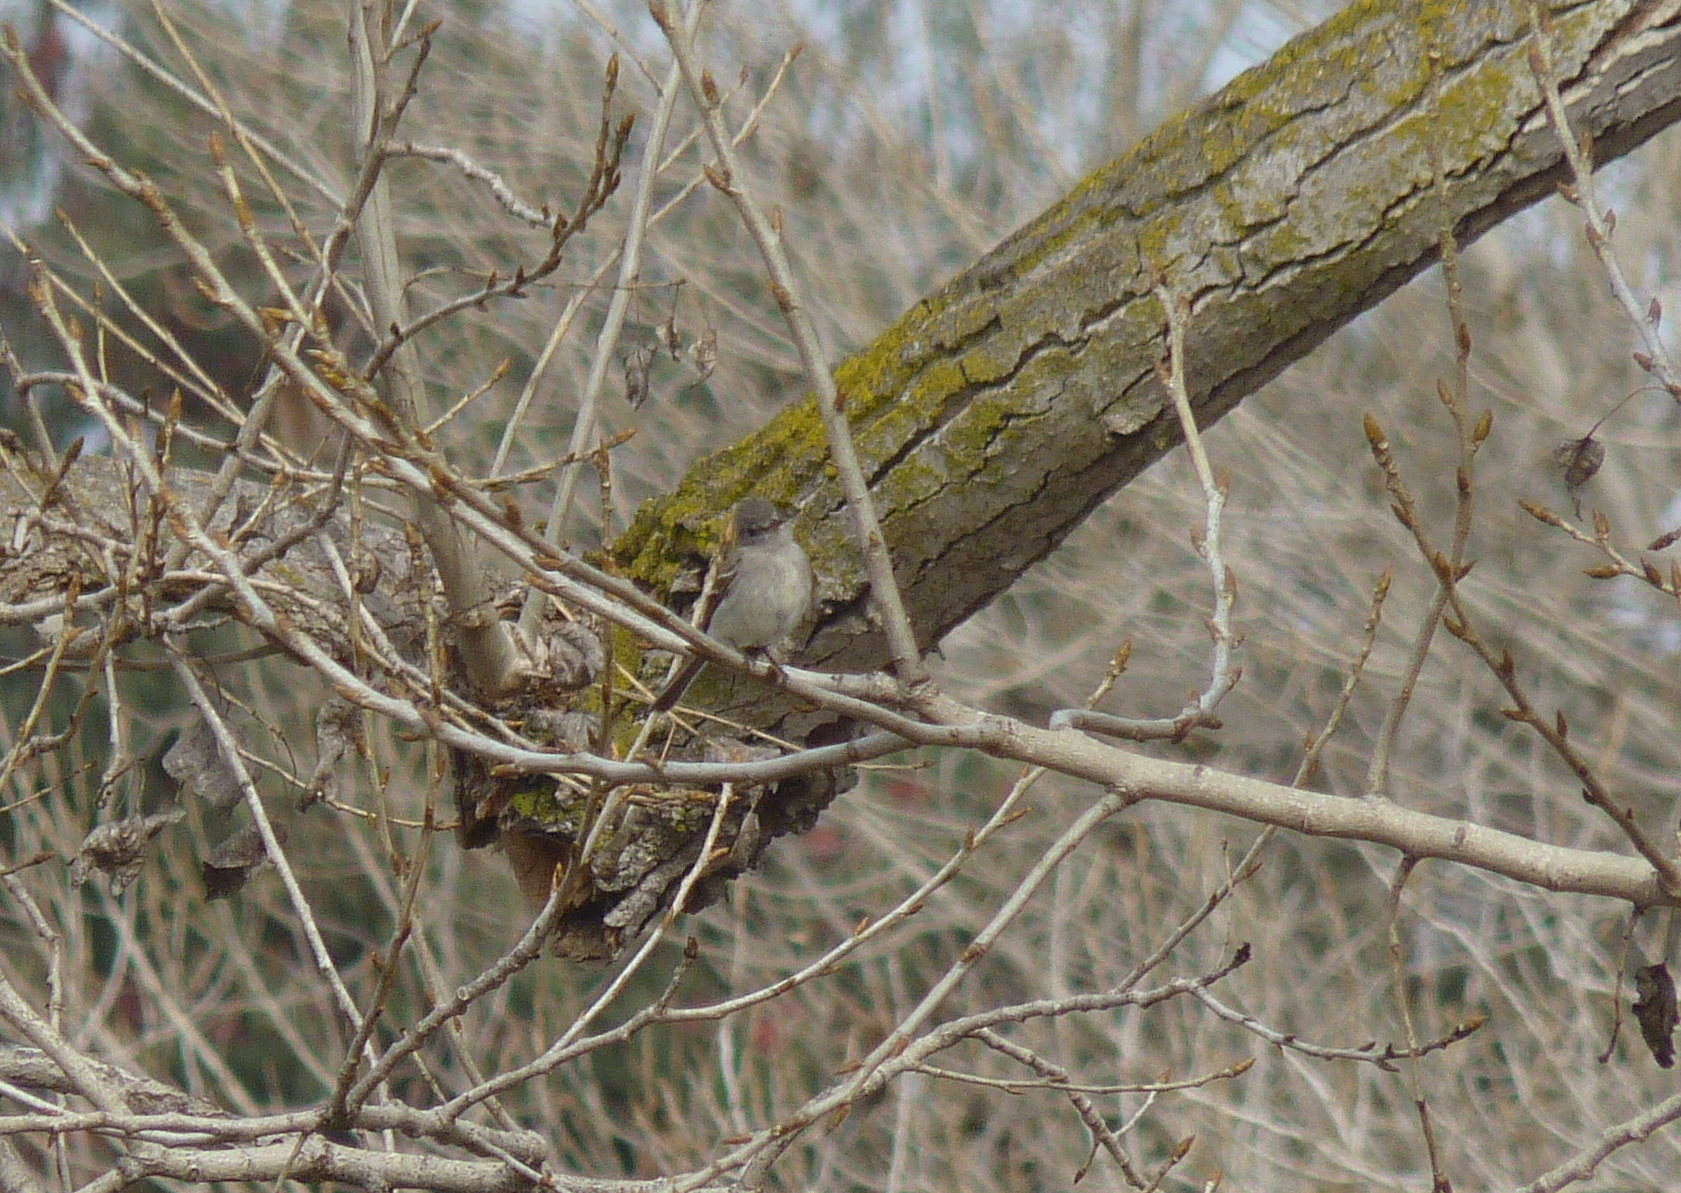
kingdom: Animalia
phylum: Chordata
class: Aves
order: Passeriformes
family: Tyrannidae
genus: Empidonax
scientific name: Empidonax wrightii
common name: Gray flycatcher
